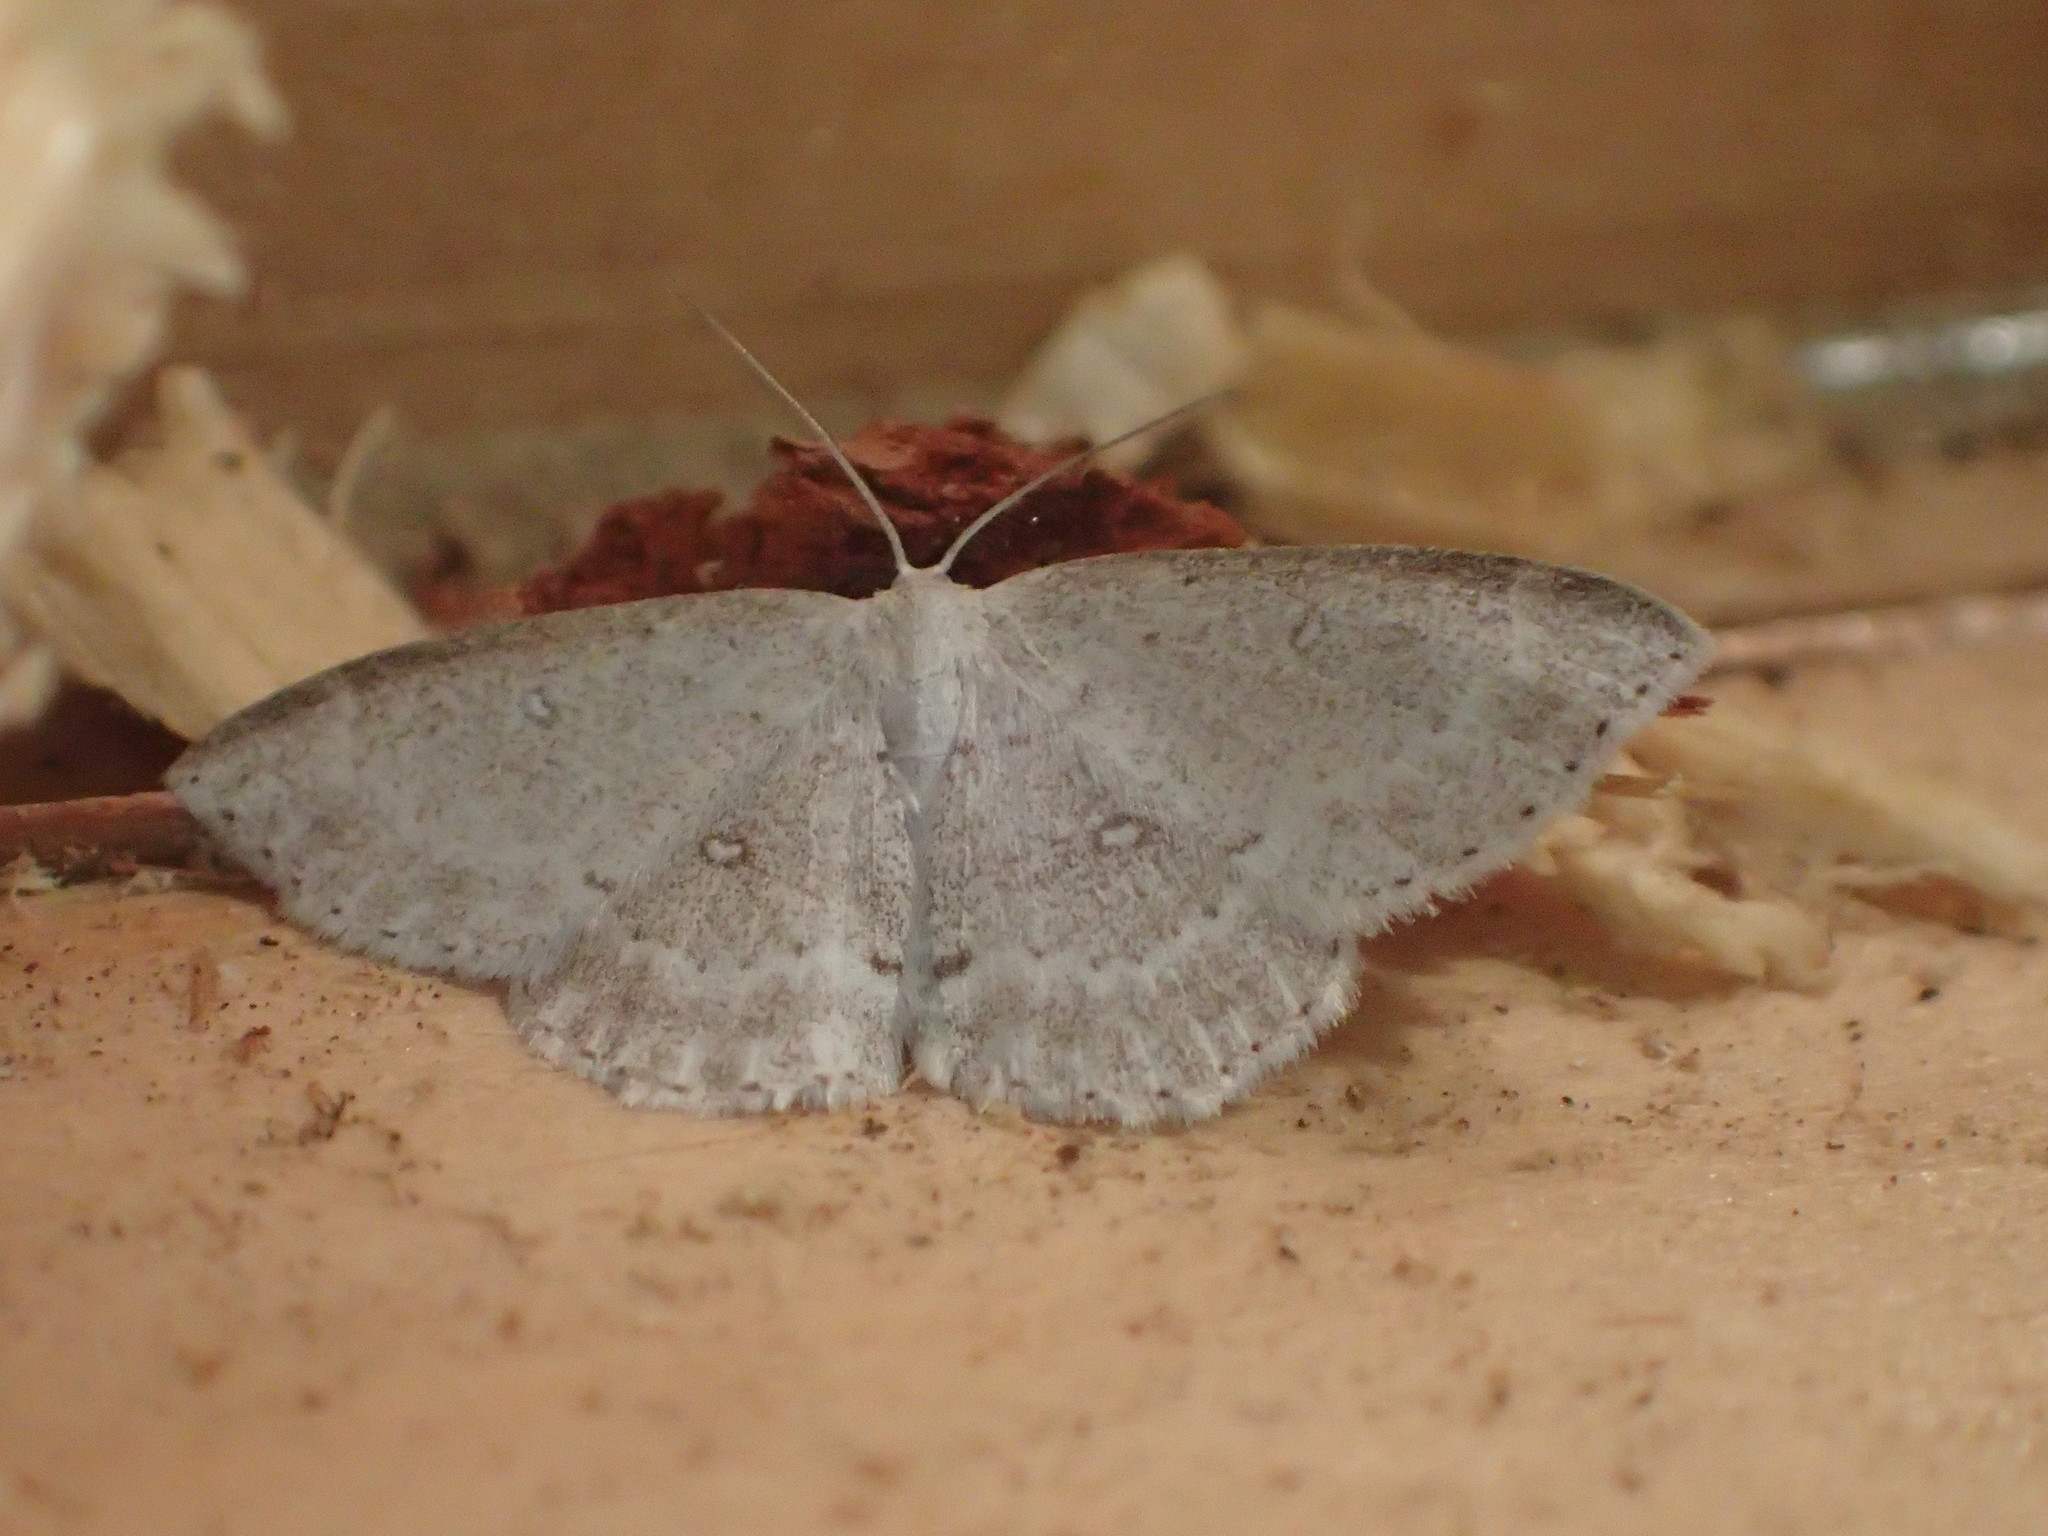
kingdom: Animalia
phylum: Arthropoda
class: Insecta
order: Lepidoptera
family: Geometridae
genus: Cyclophora
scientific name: Cyclophora pendulinaria
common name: Sweet fern geometer
